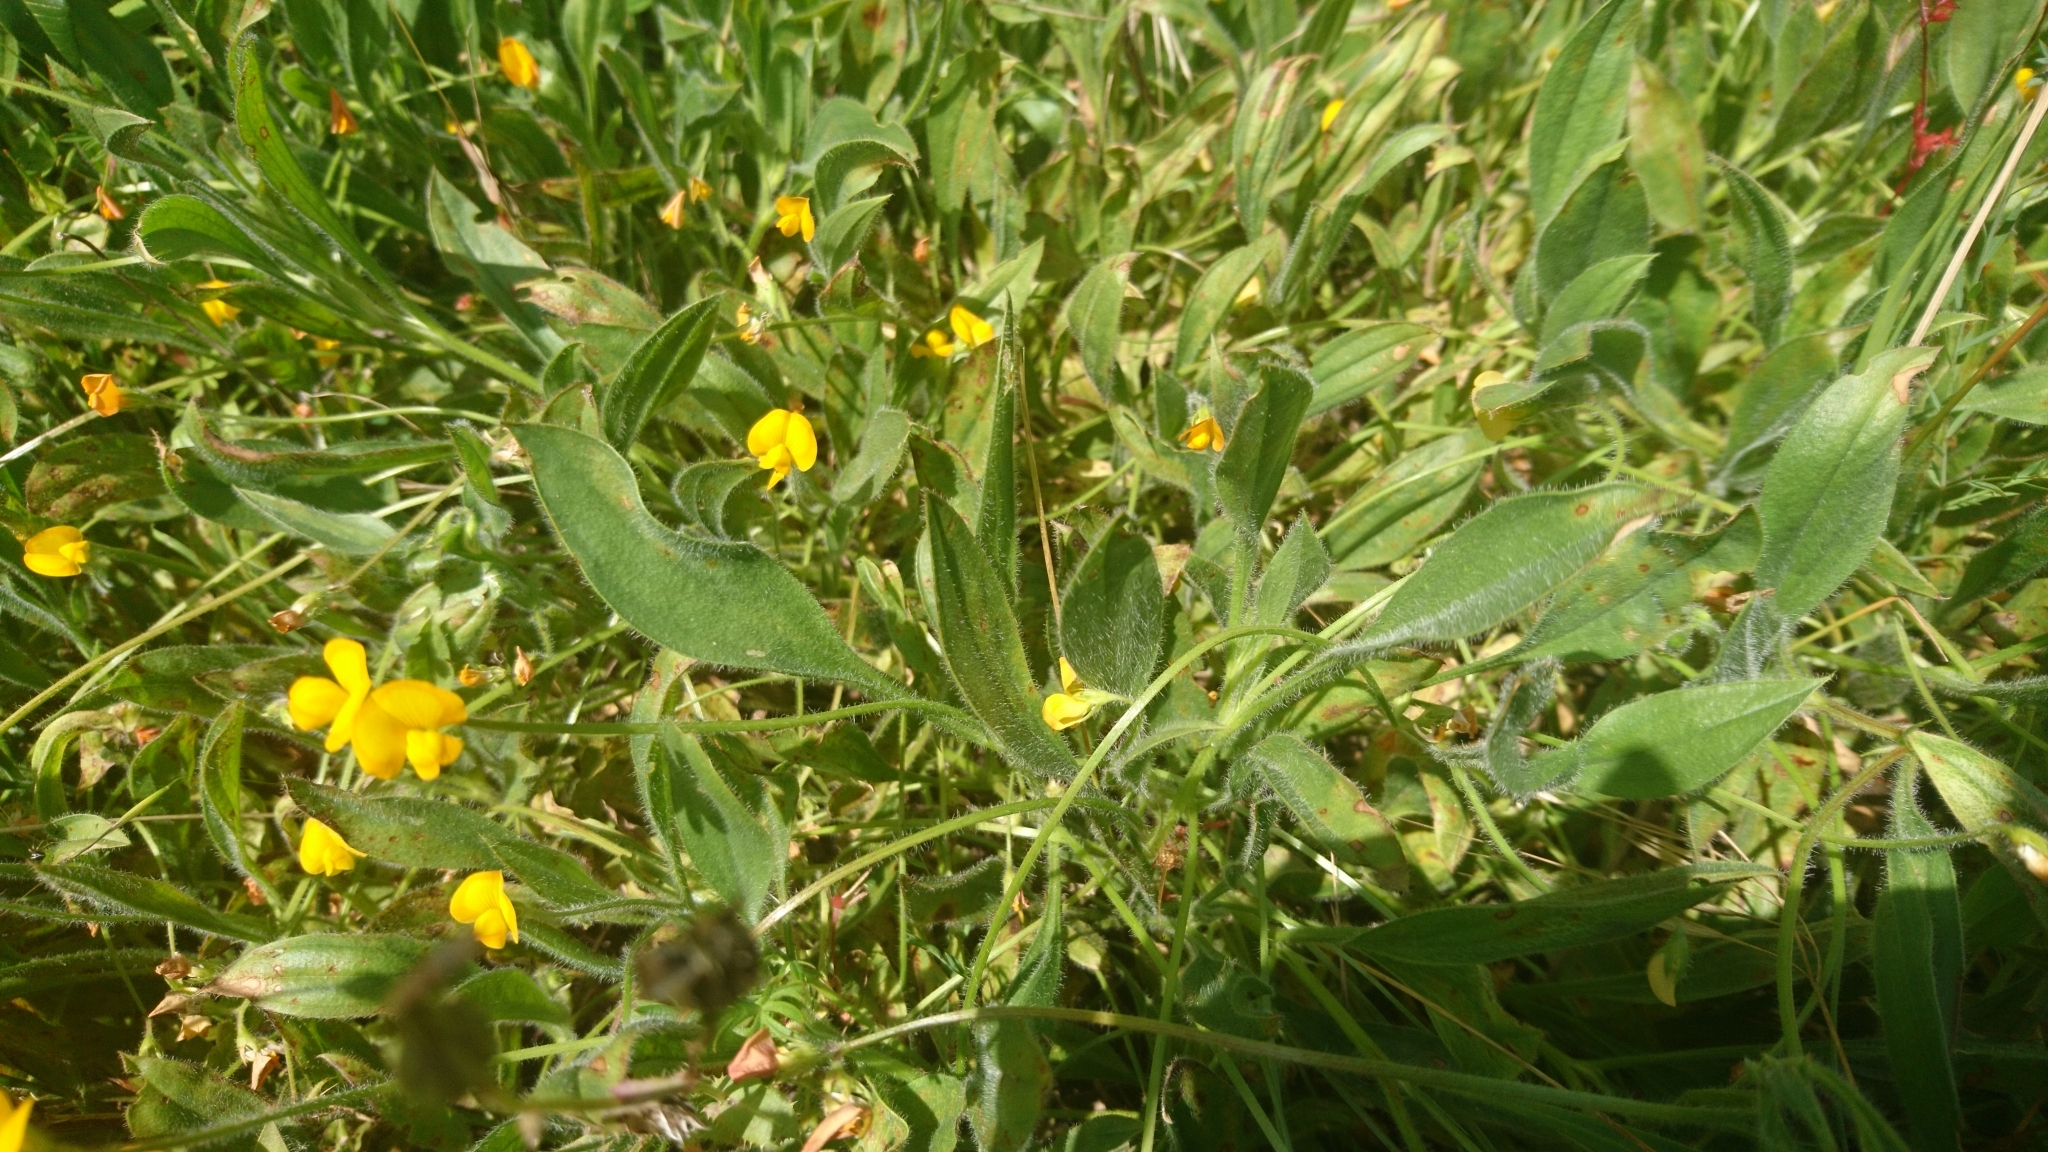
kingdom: Plantae
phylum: Tracheophyta
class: Magnoliopsida
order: Fabales
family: Fabaceae
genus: Scorpiurus
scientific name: Scorpiurus vermiculatus
